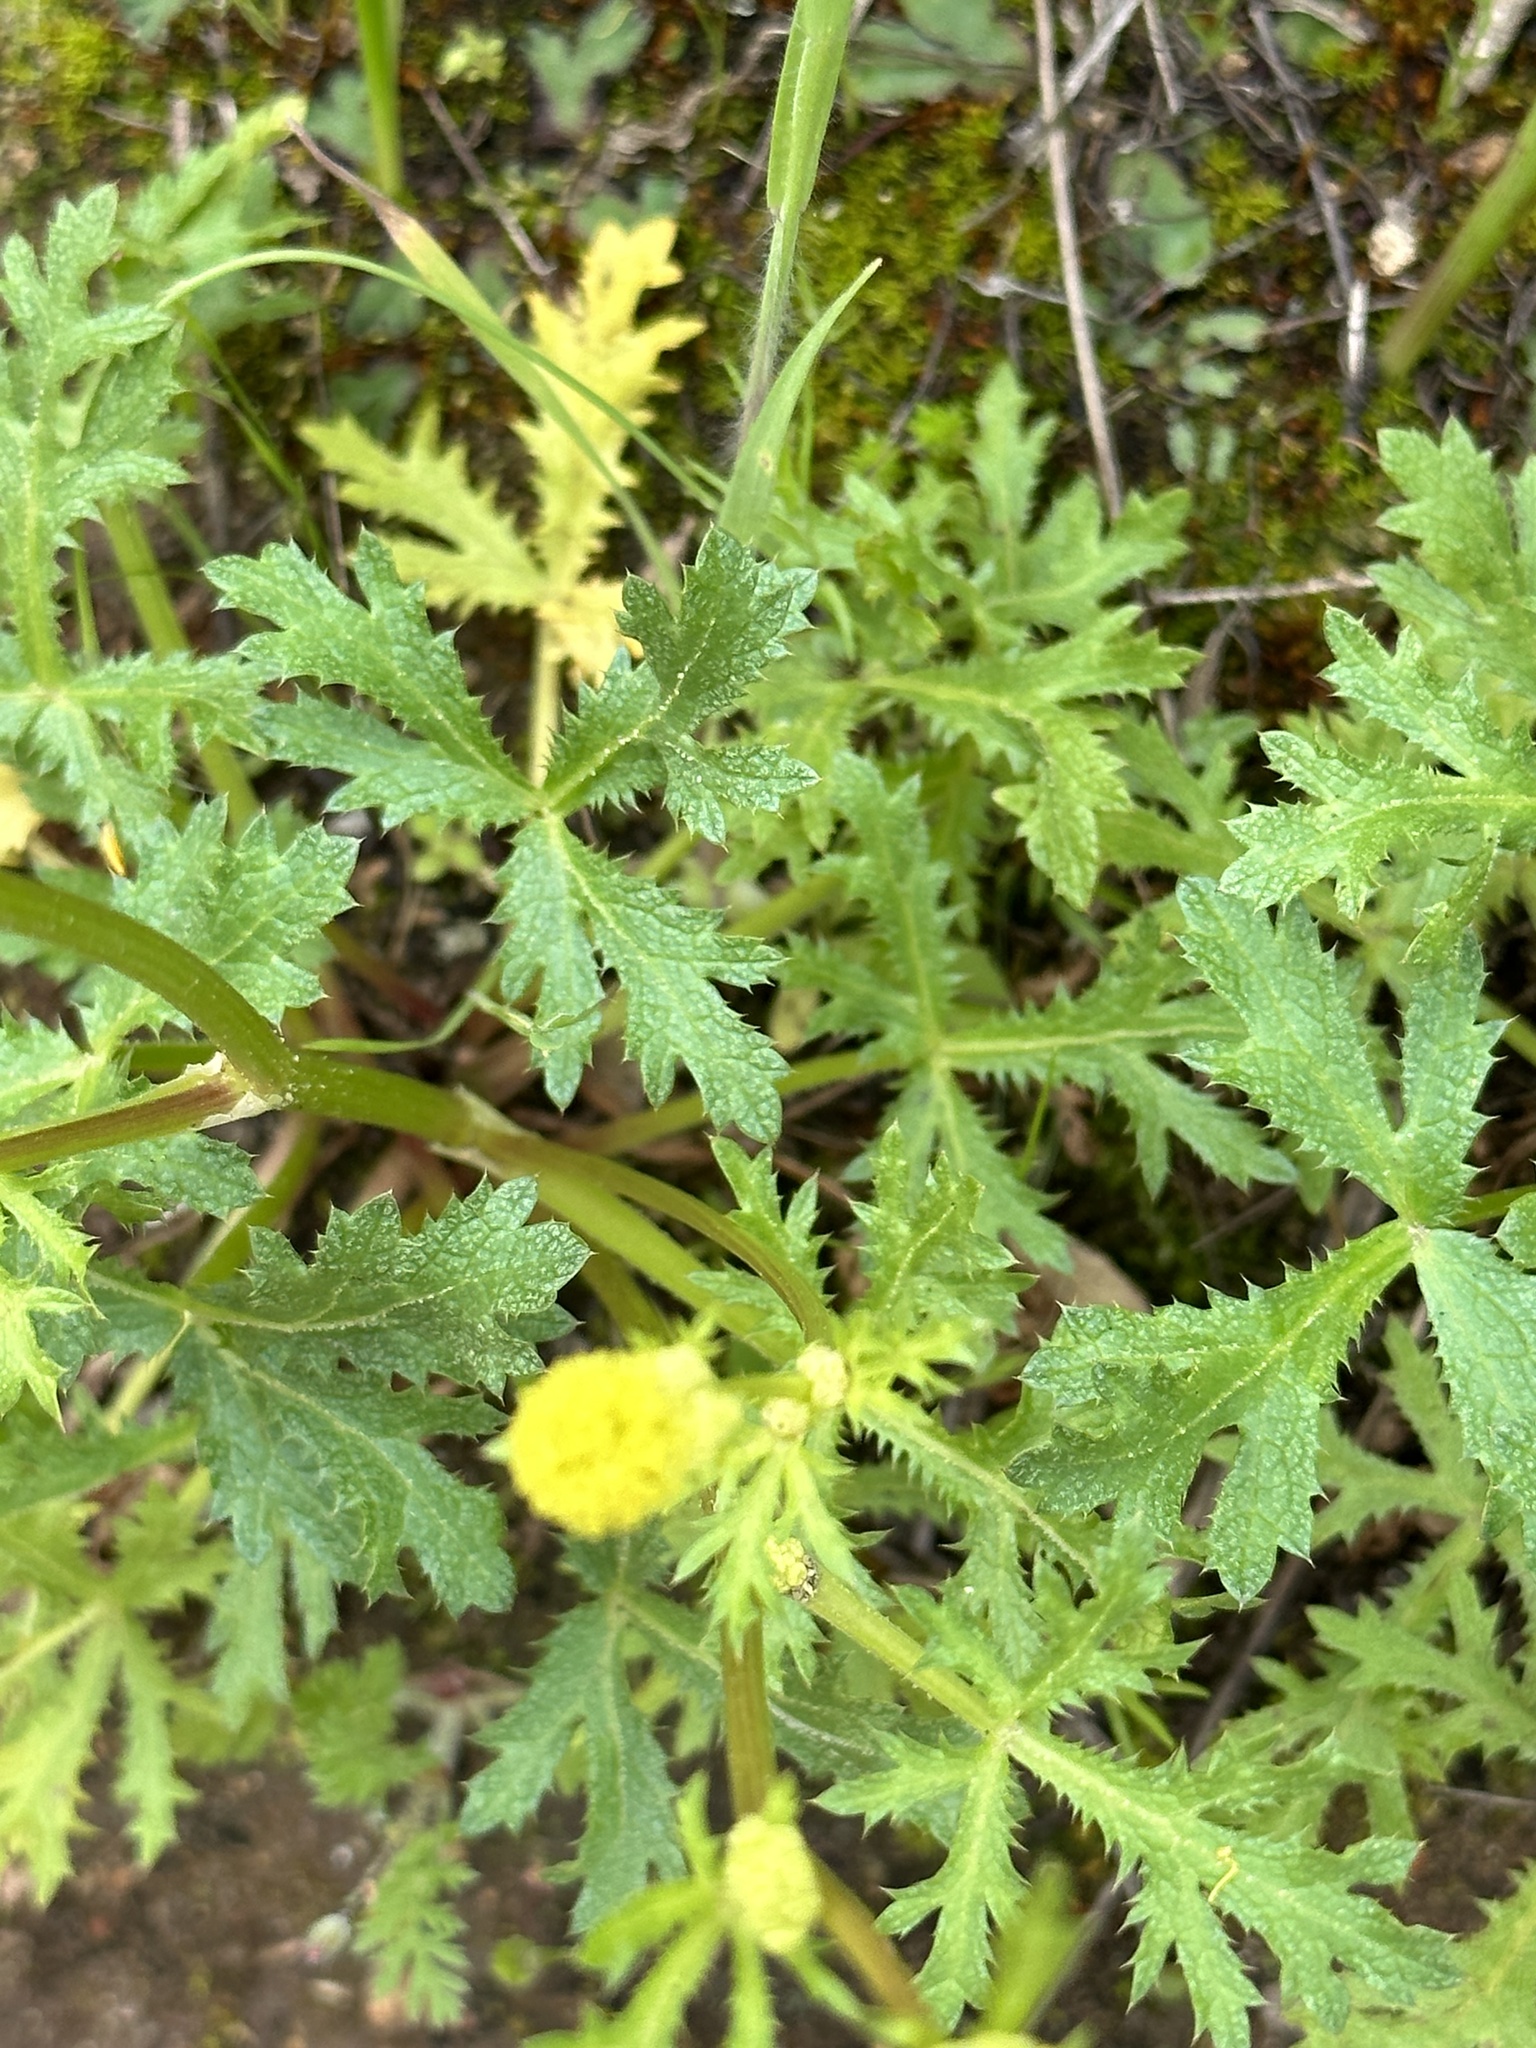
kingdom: Plantae
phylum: Tracheophyta
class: Magnoliopsida
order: Apiales
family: Apiaceae
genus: Sanicula
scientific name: Sanicula arguta
